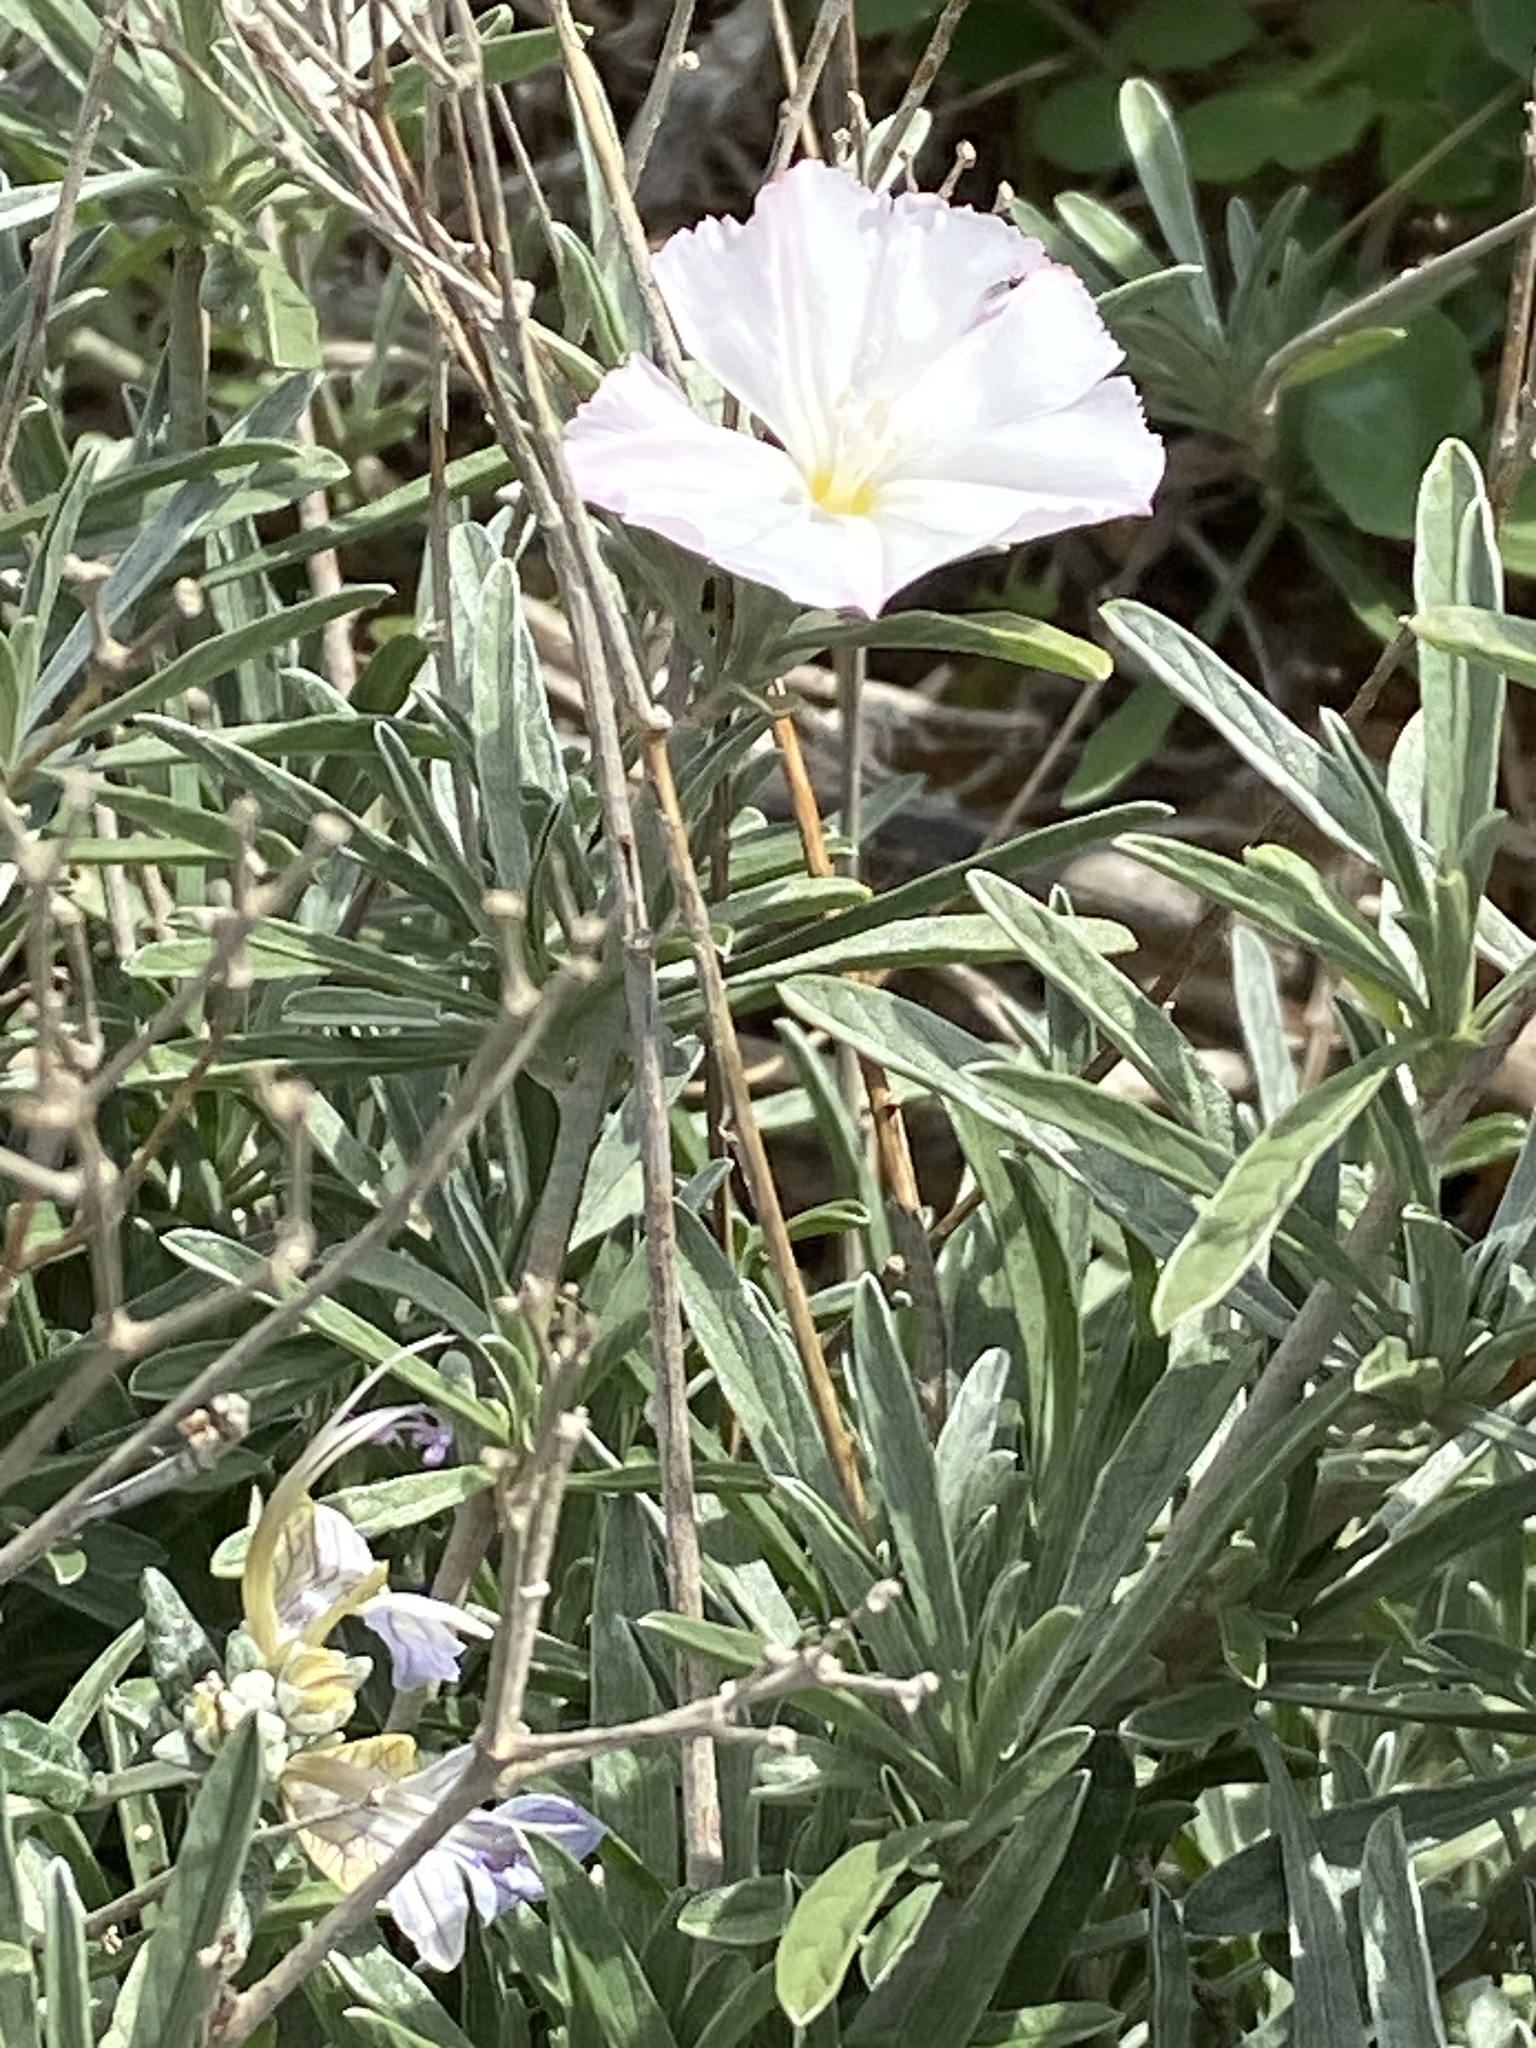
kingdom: Plantae
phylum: Tracheophyta
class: Magnoliopsida
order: Solanales
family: Convolvulaceae
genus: Convolvulus
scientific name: Convolvulus lineatus
